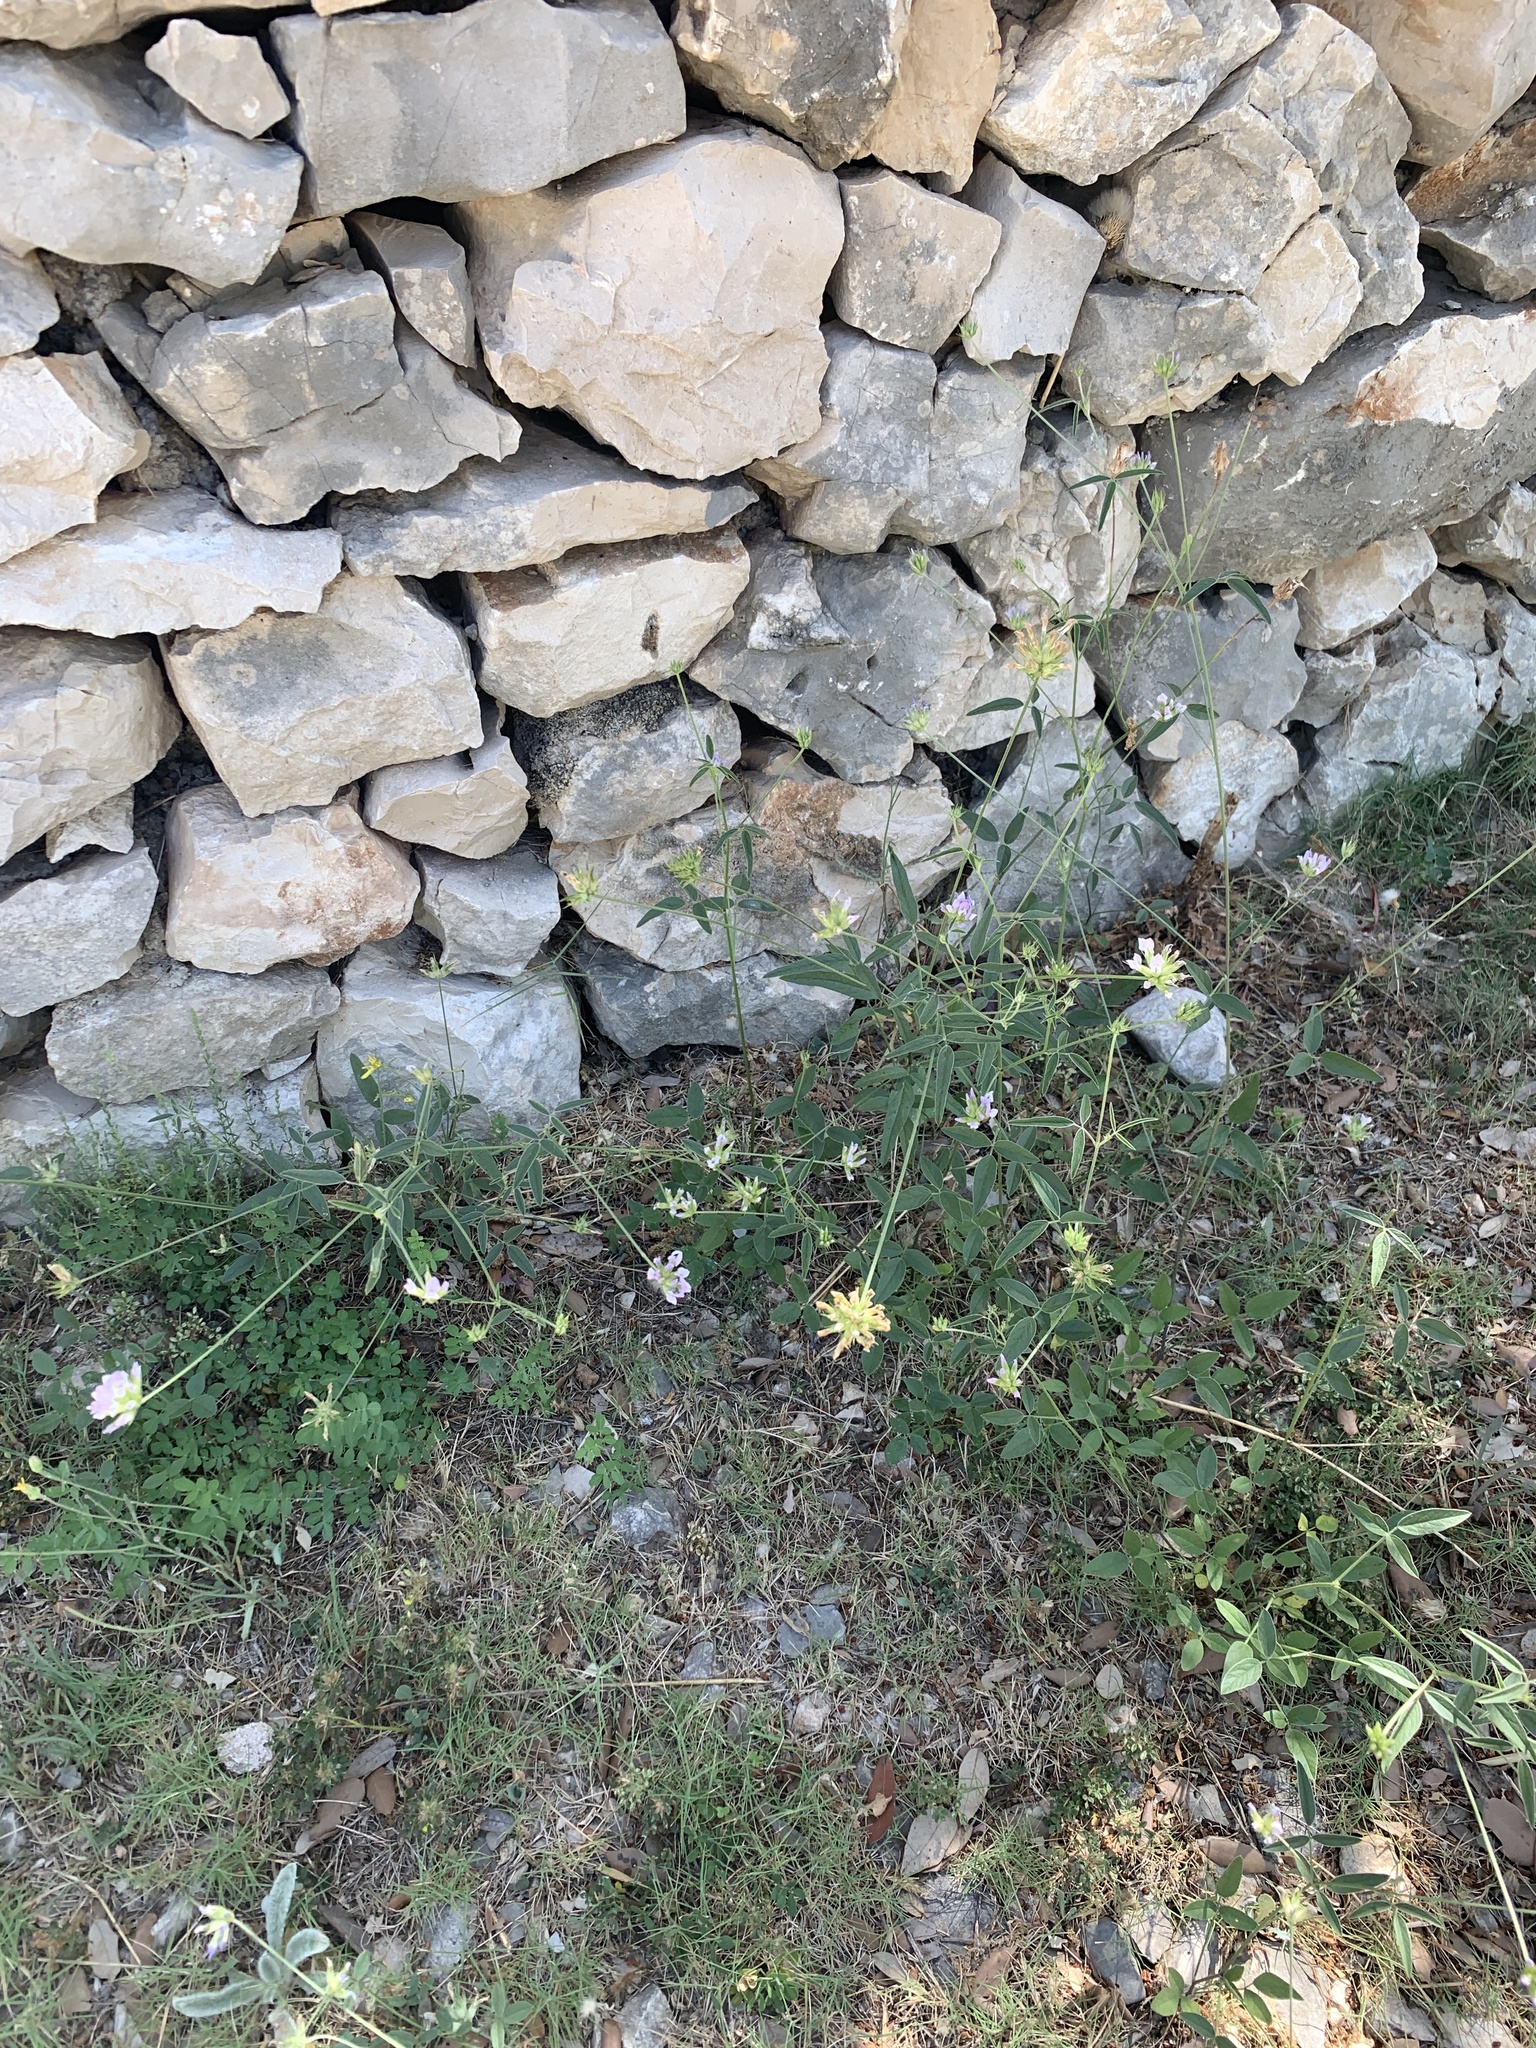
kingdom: Plantae
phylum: Tracheophyta
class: Magnoliopsida
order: Fabales
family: Fabaceae
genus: Bituminaria
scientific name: Bituminaria bituminosa
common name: Arabian pea
